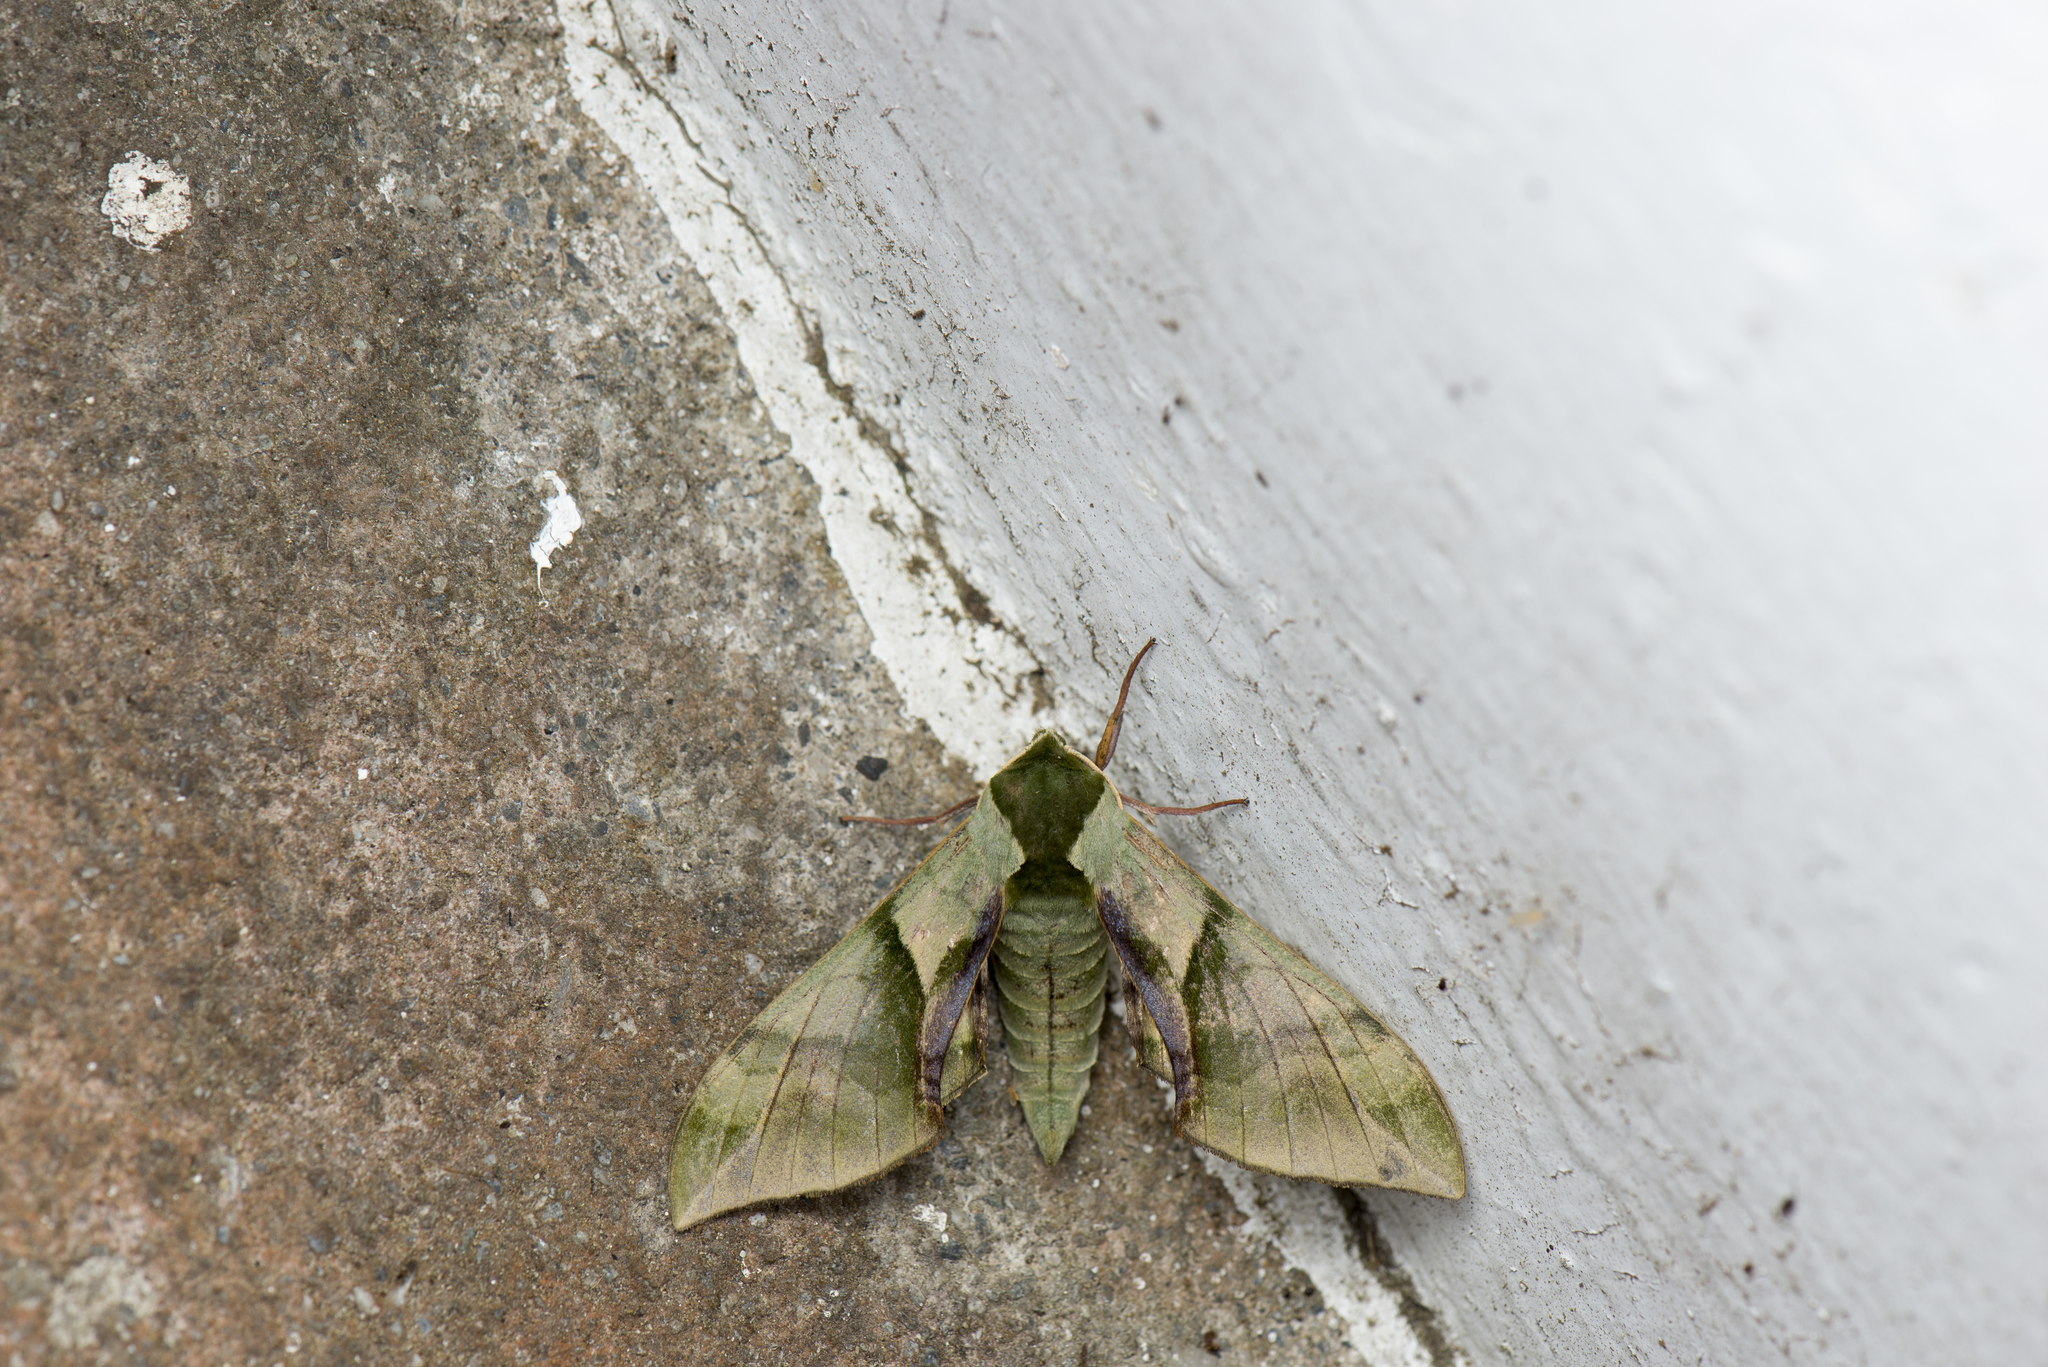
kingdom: Animalia
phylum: Arthropoda
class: Insecta
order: Lepidoptera
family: Sphingidae
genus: Callambulyx
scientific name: Callambulyx tatarinovii
